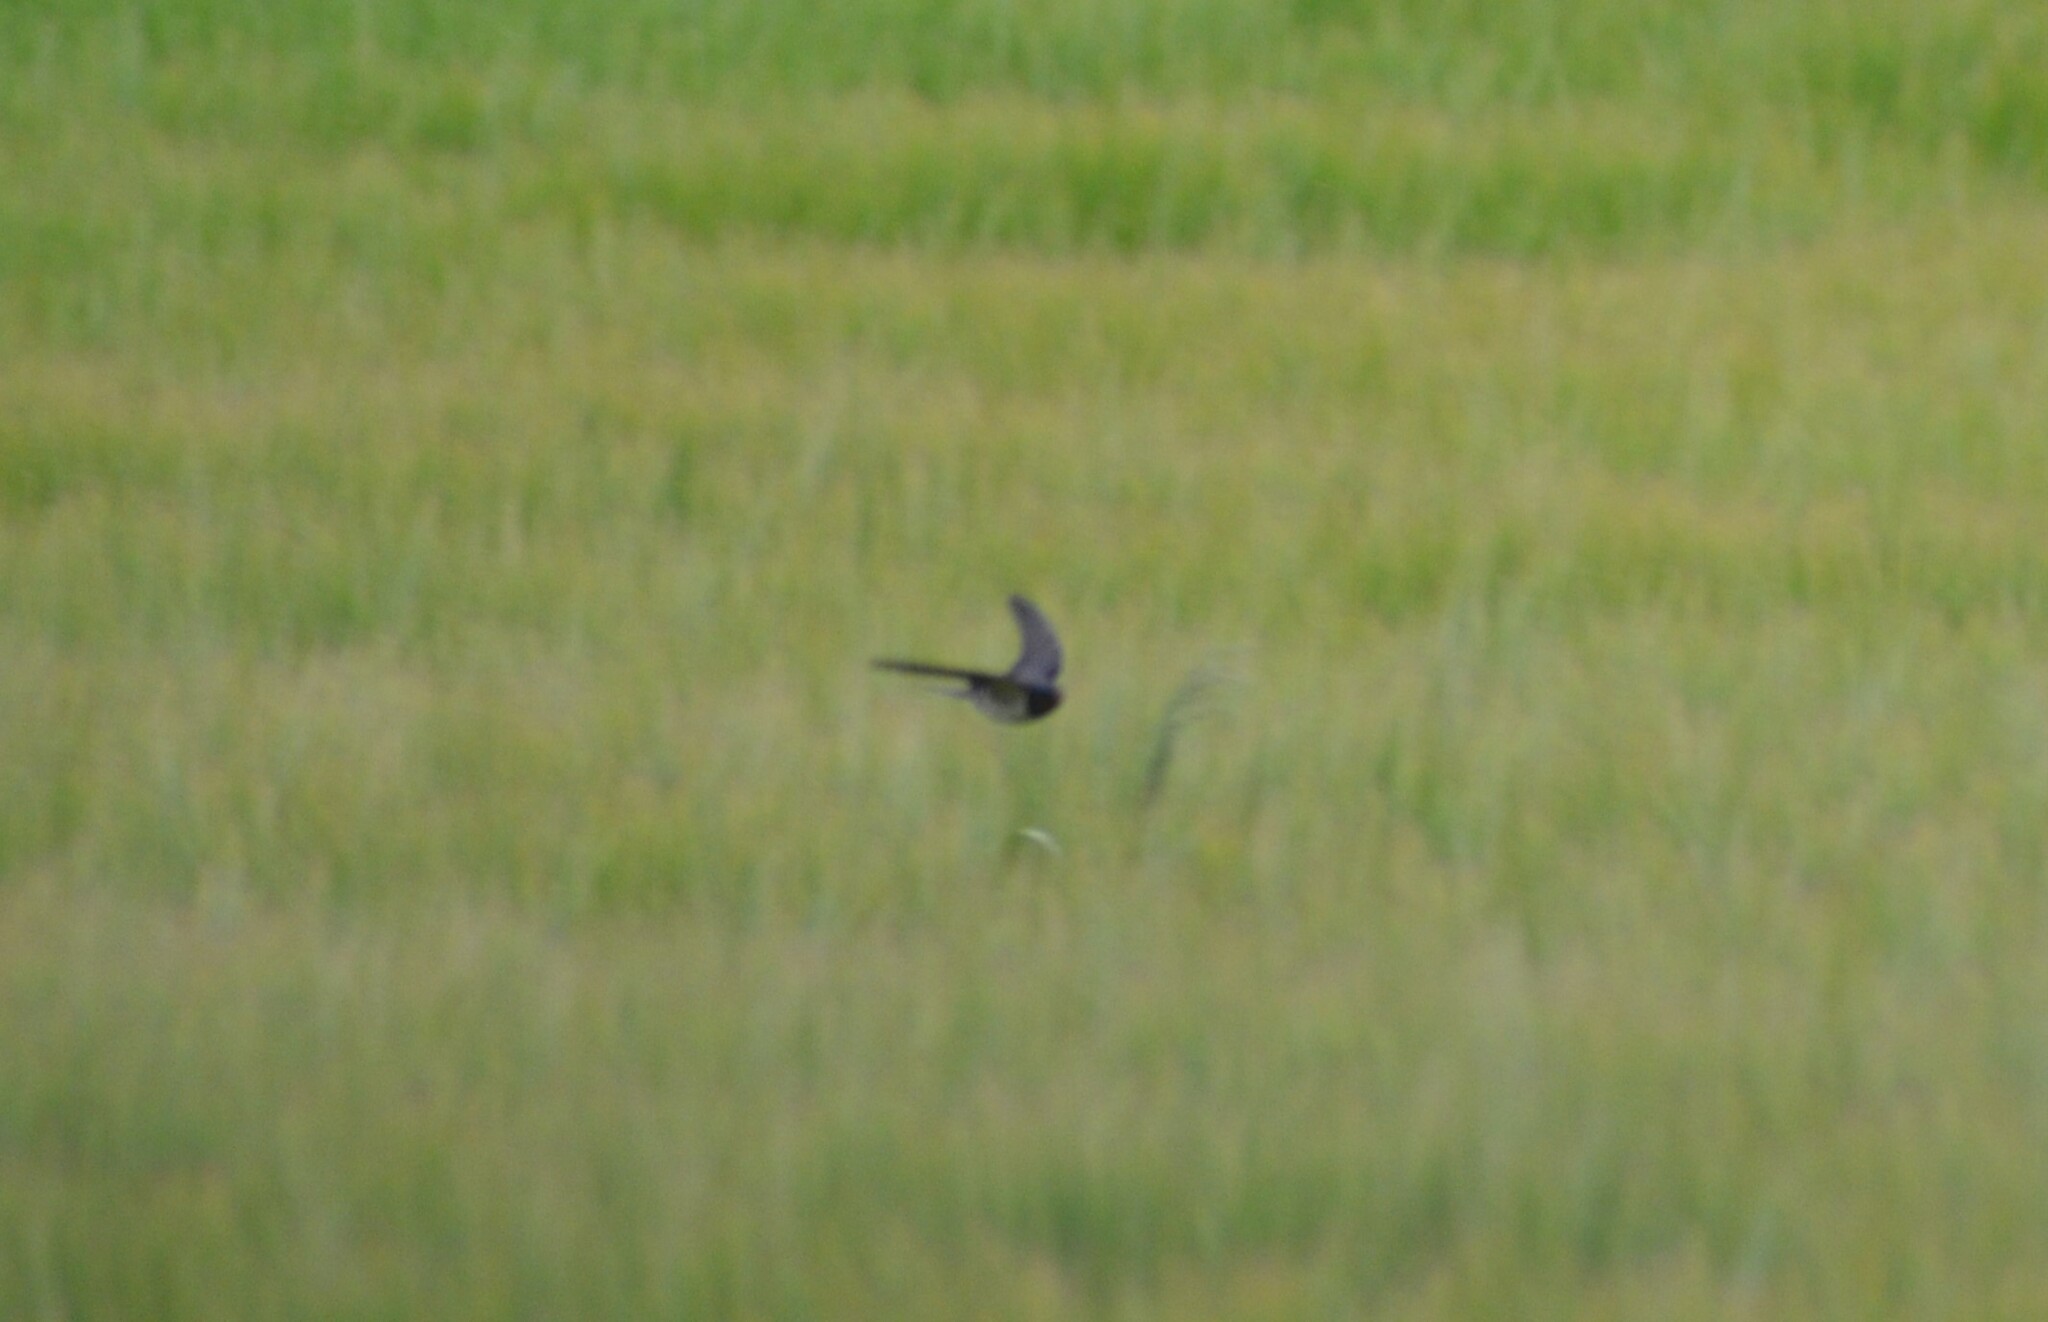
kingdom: Animalia
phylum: Chordata
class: Aves
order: Passeriformes
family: Hirundinidae
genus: Hirundo
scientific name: Hirundo rustica
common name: Barn swallow
